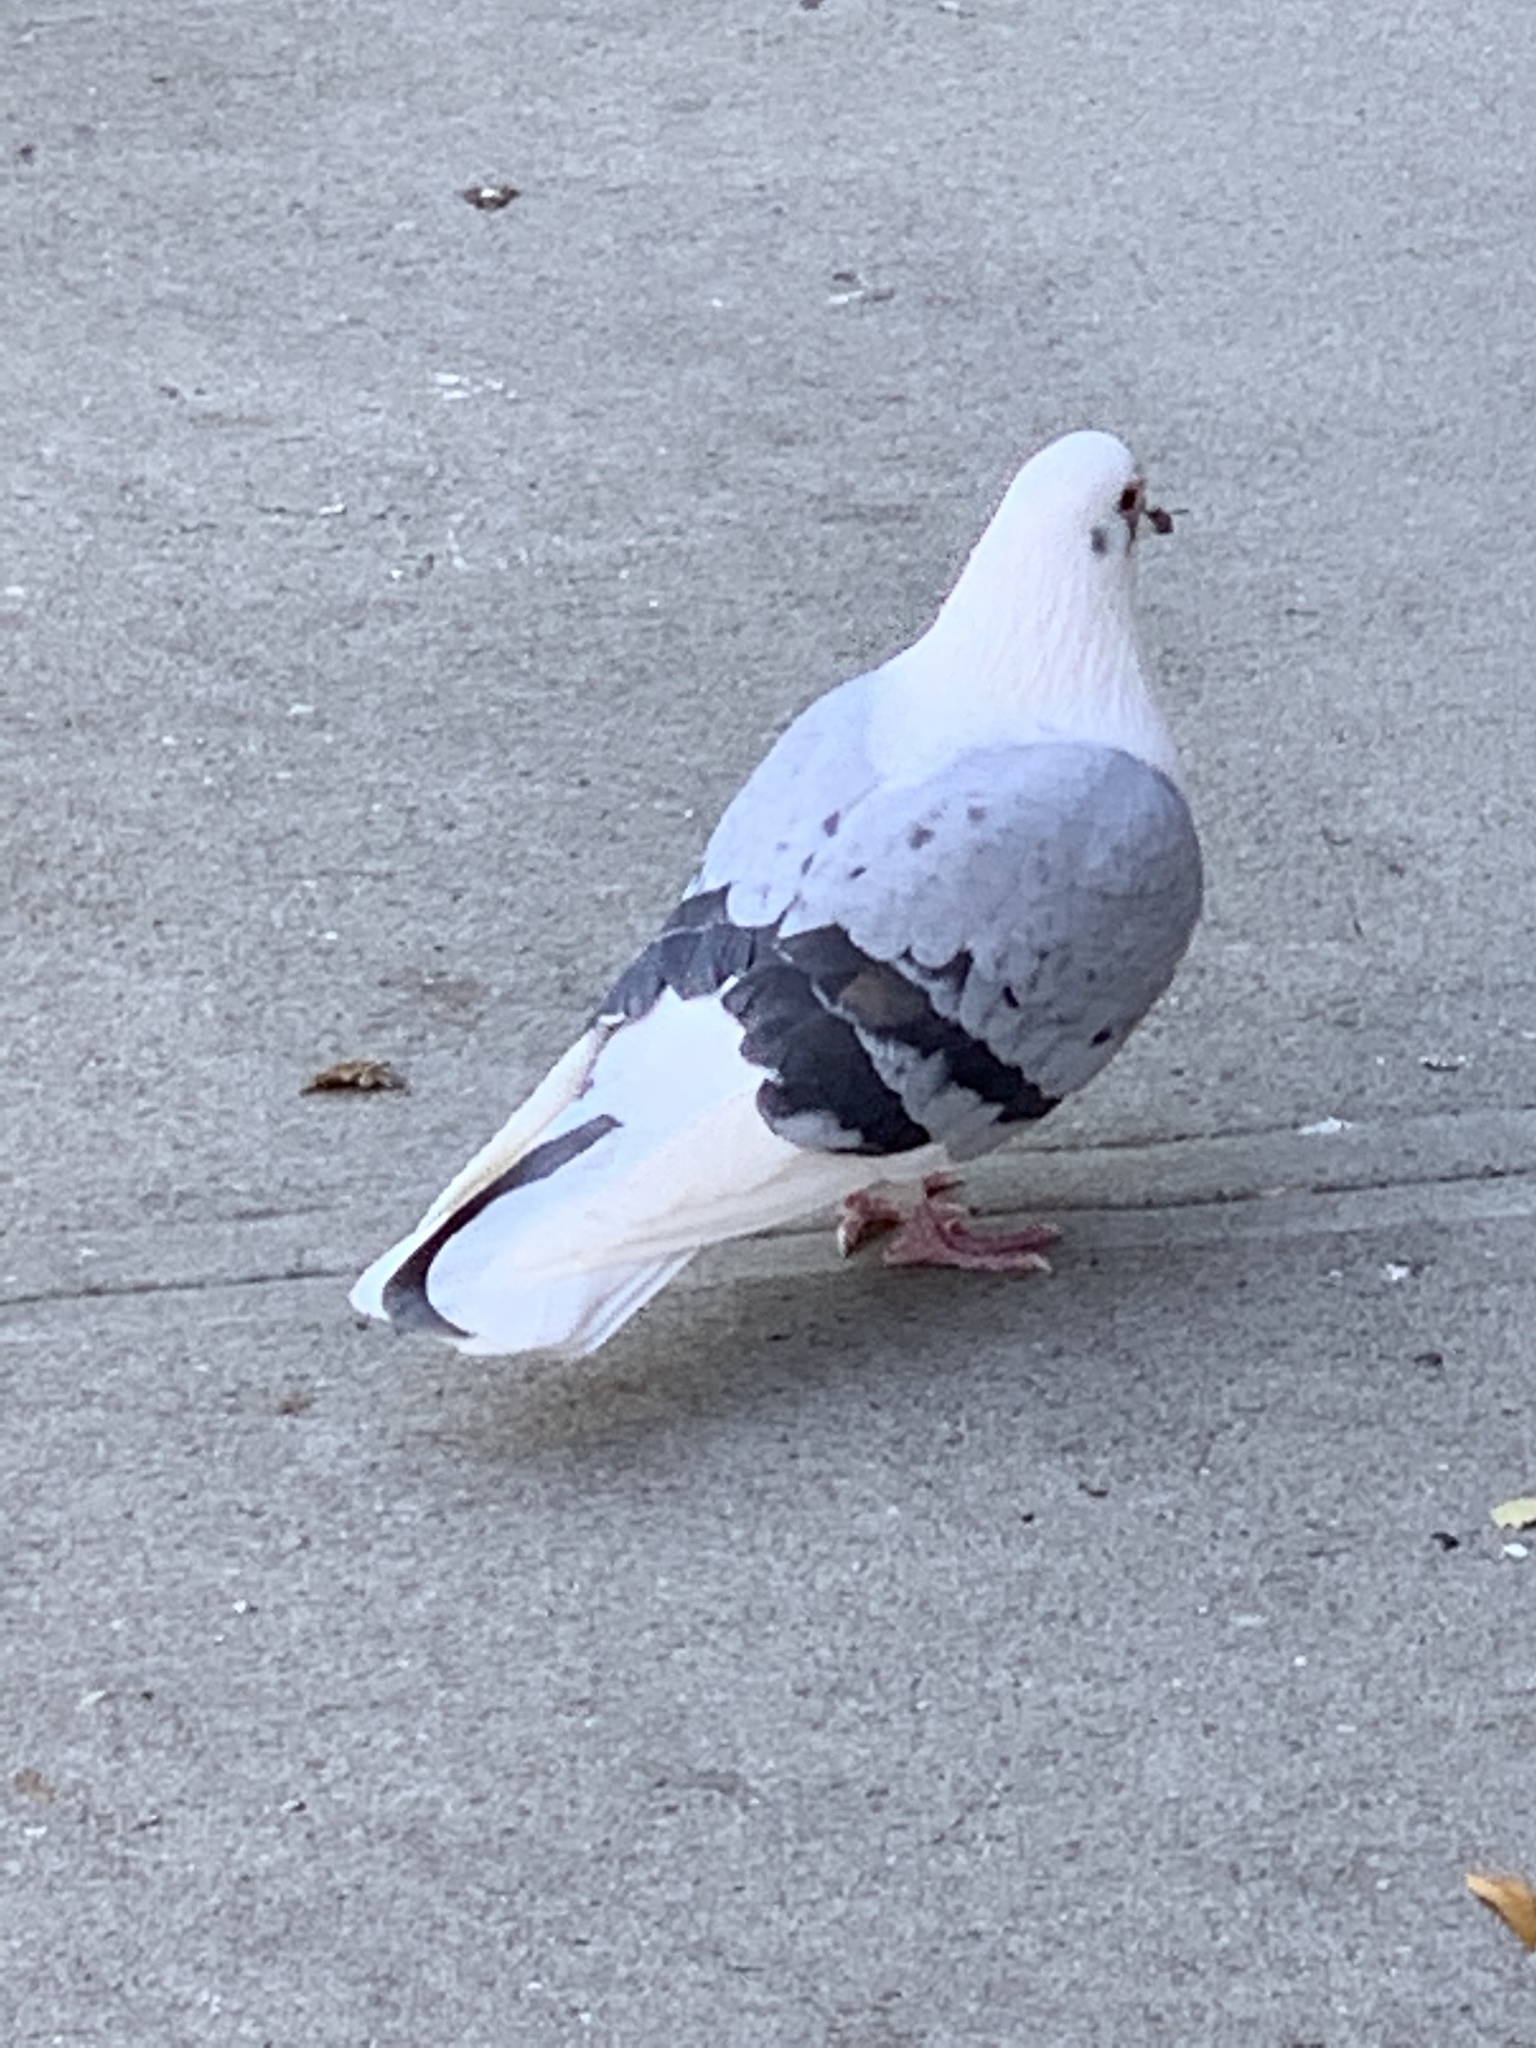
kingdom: Animalia
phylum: Chordata
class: Aves
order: Columbiformes
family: Columbidae
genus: Columba
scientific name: Columba livia
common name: Rock pigeon
